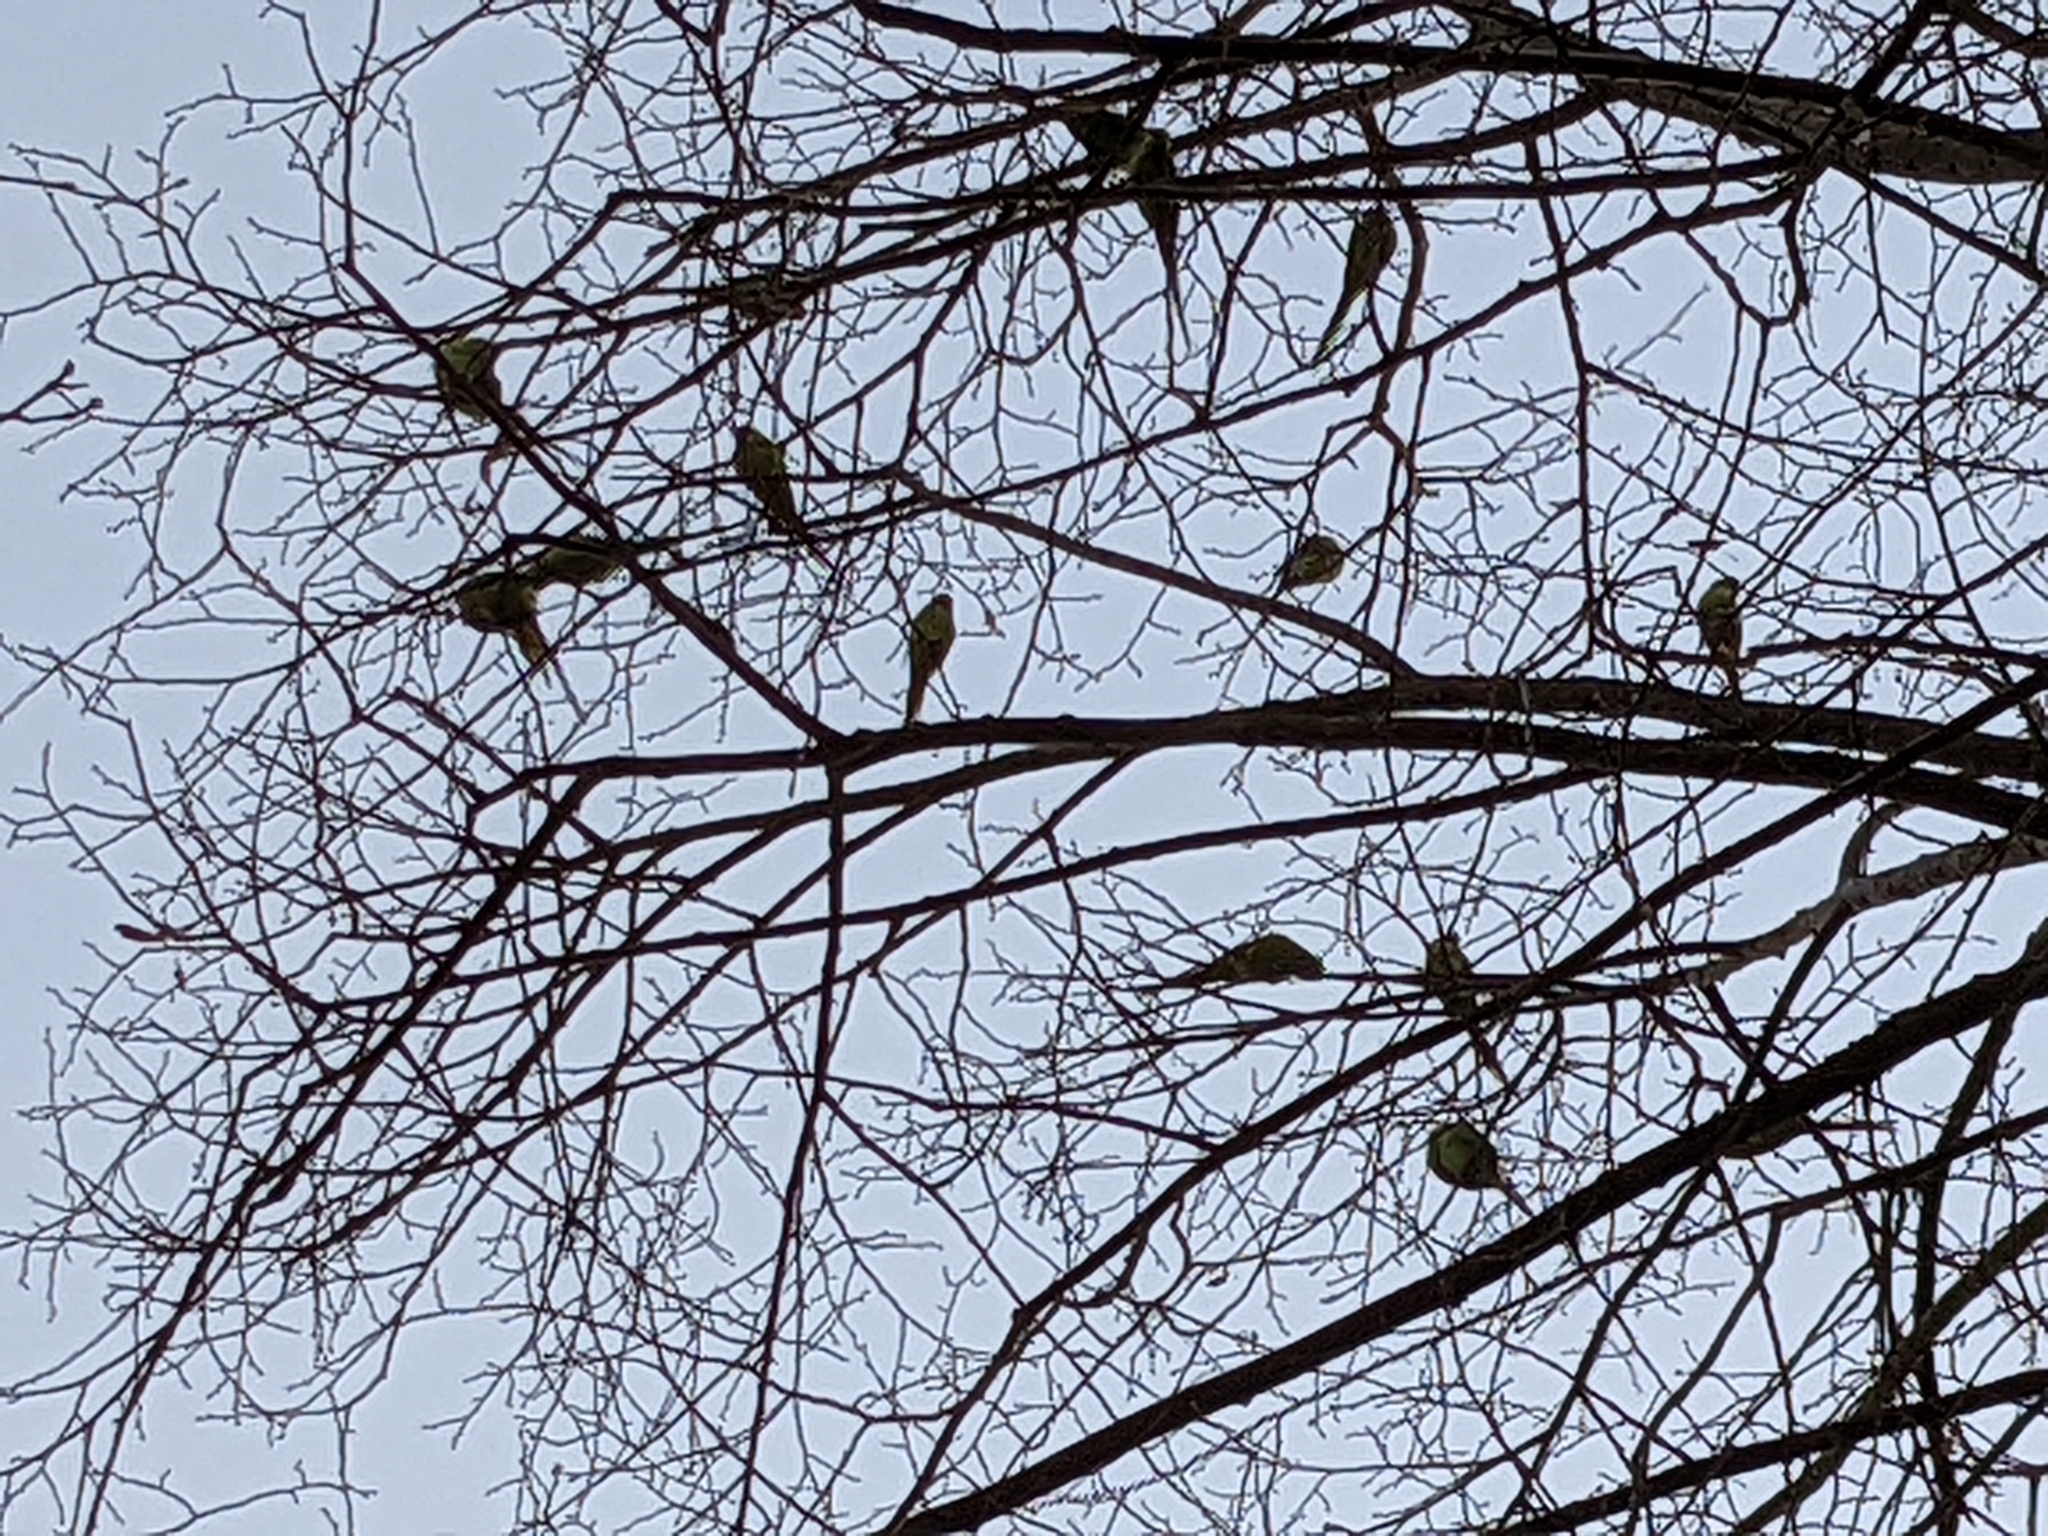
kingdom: Animalia
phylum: Chordata
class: Aves
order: Psittaciformes
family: Psittacidae
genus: Psittacula
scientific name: Psittacula krameri
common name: Rose-ringed parakeet
